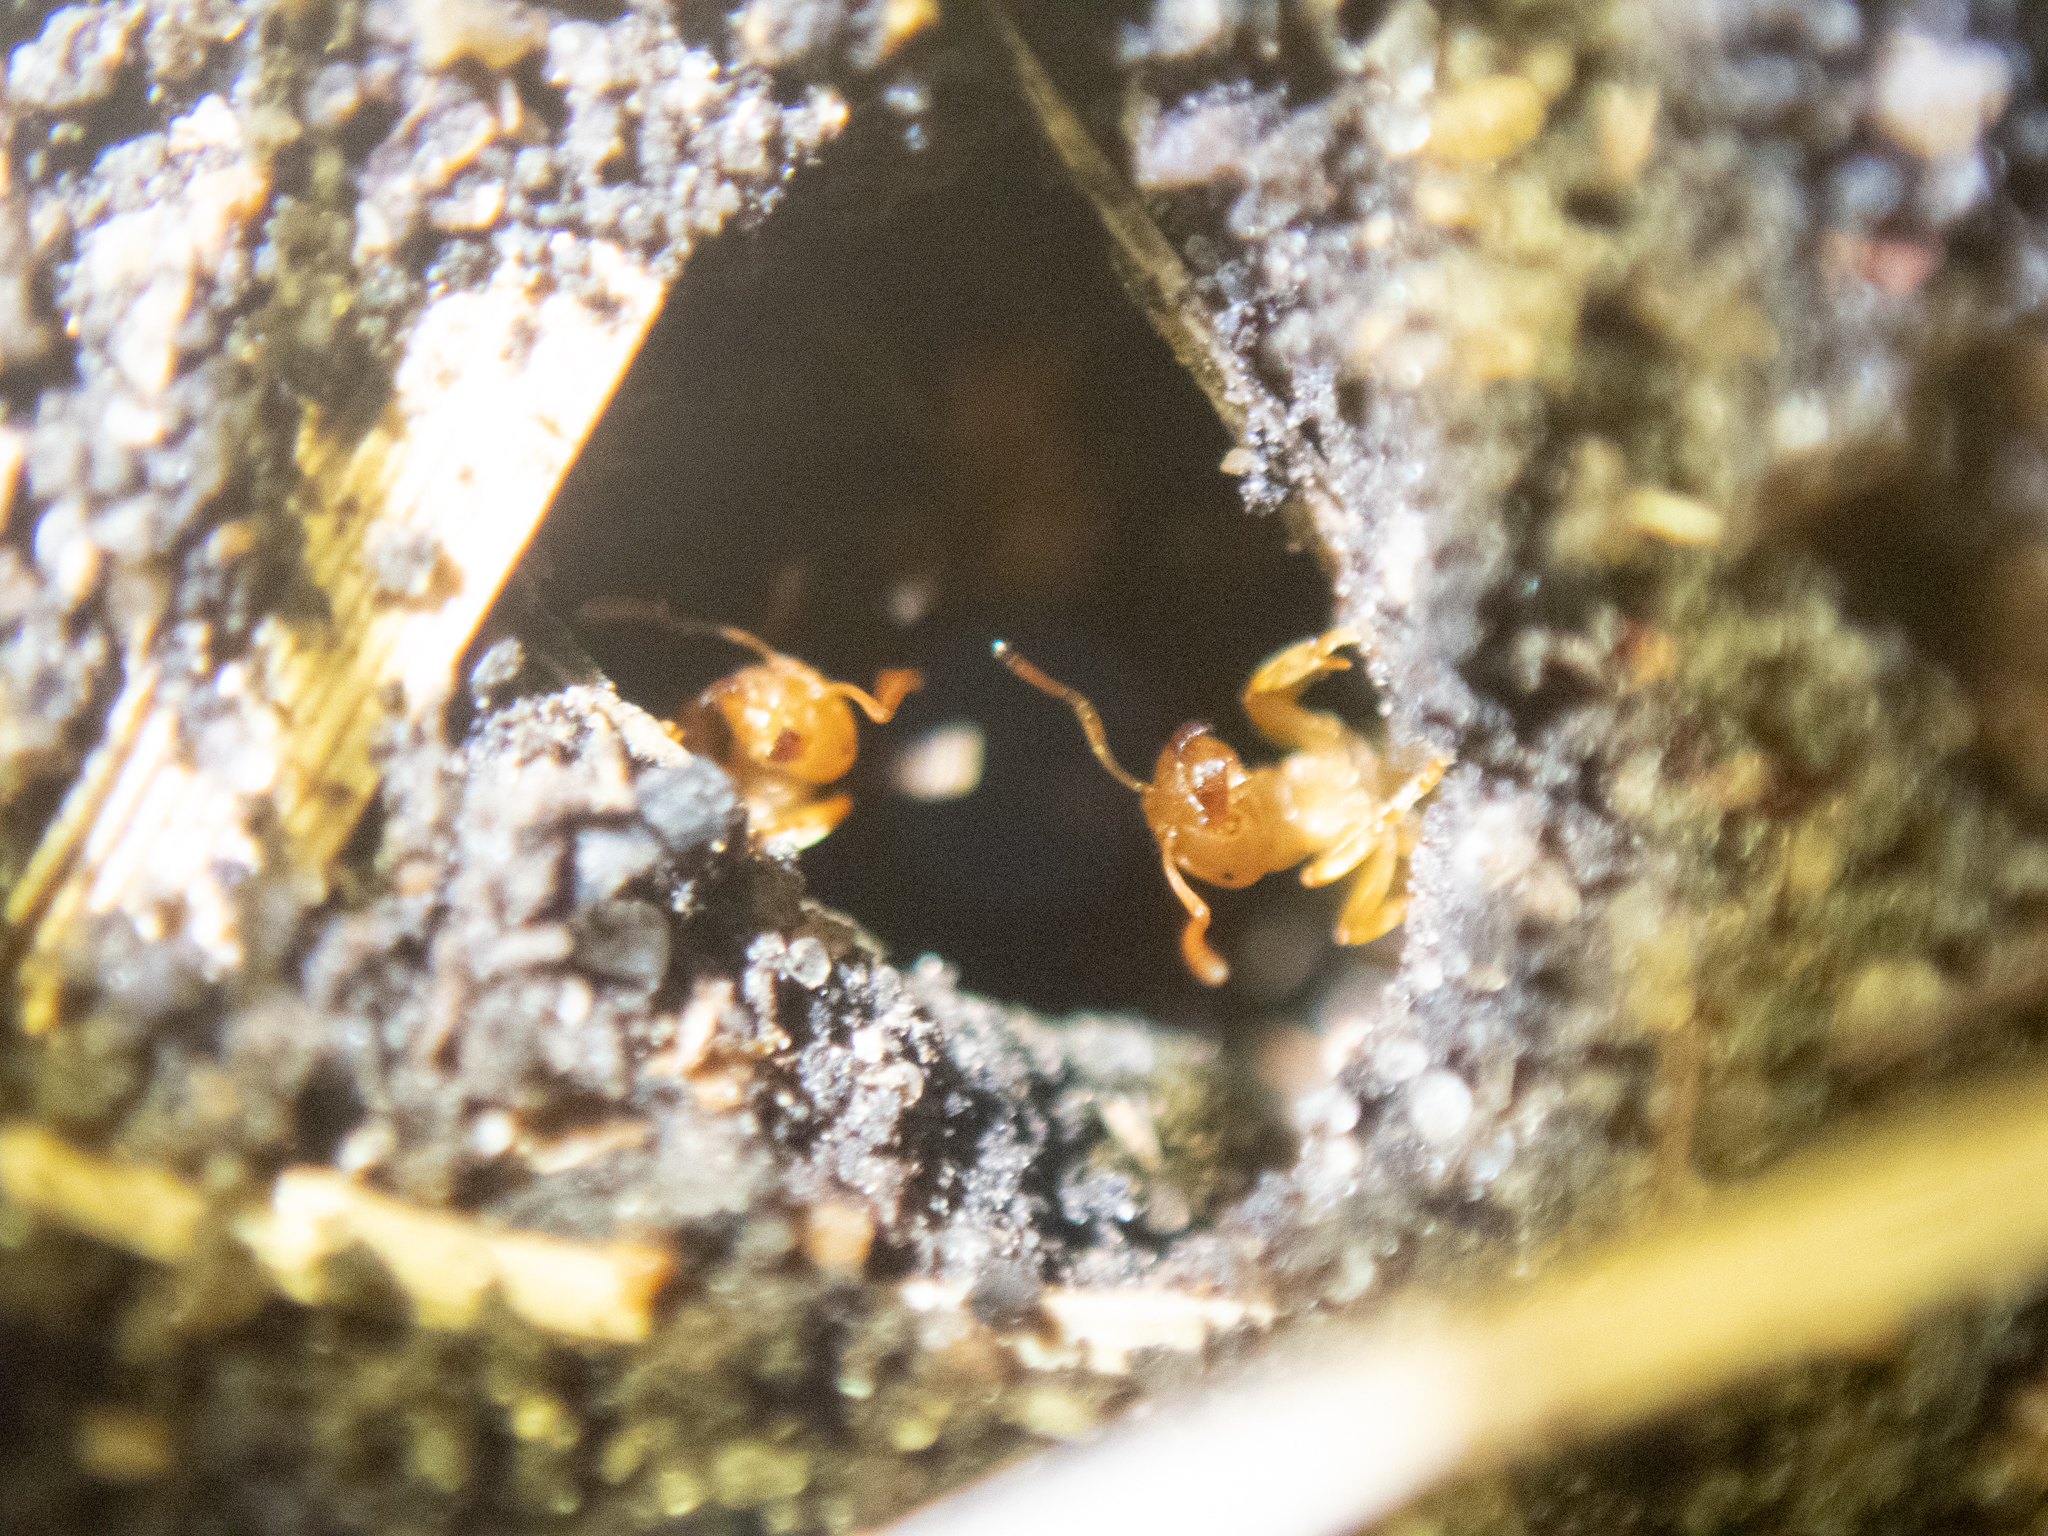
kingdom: Animalia
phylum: Arthropoda
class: Insecta
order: Hymenoptera
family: Formicidae
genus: Lasius
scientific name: Lasius
